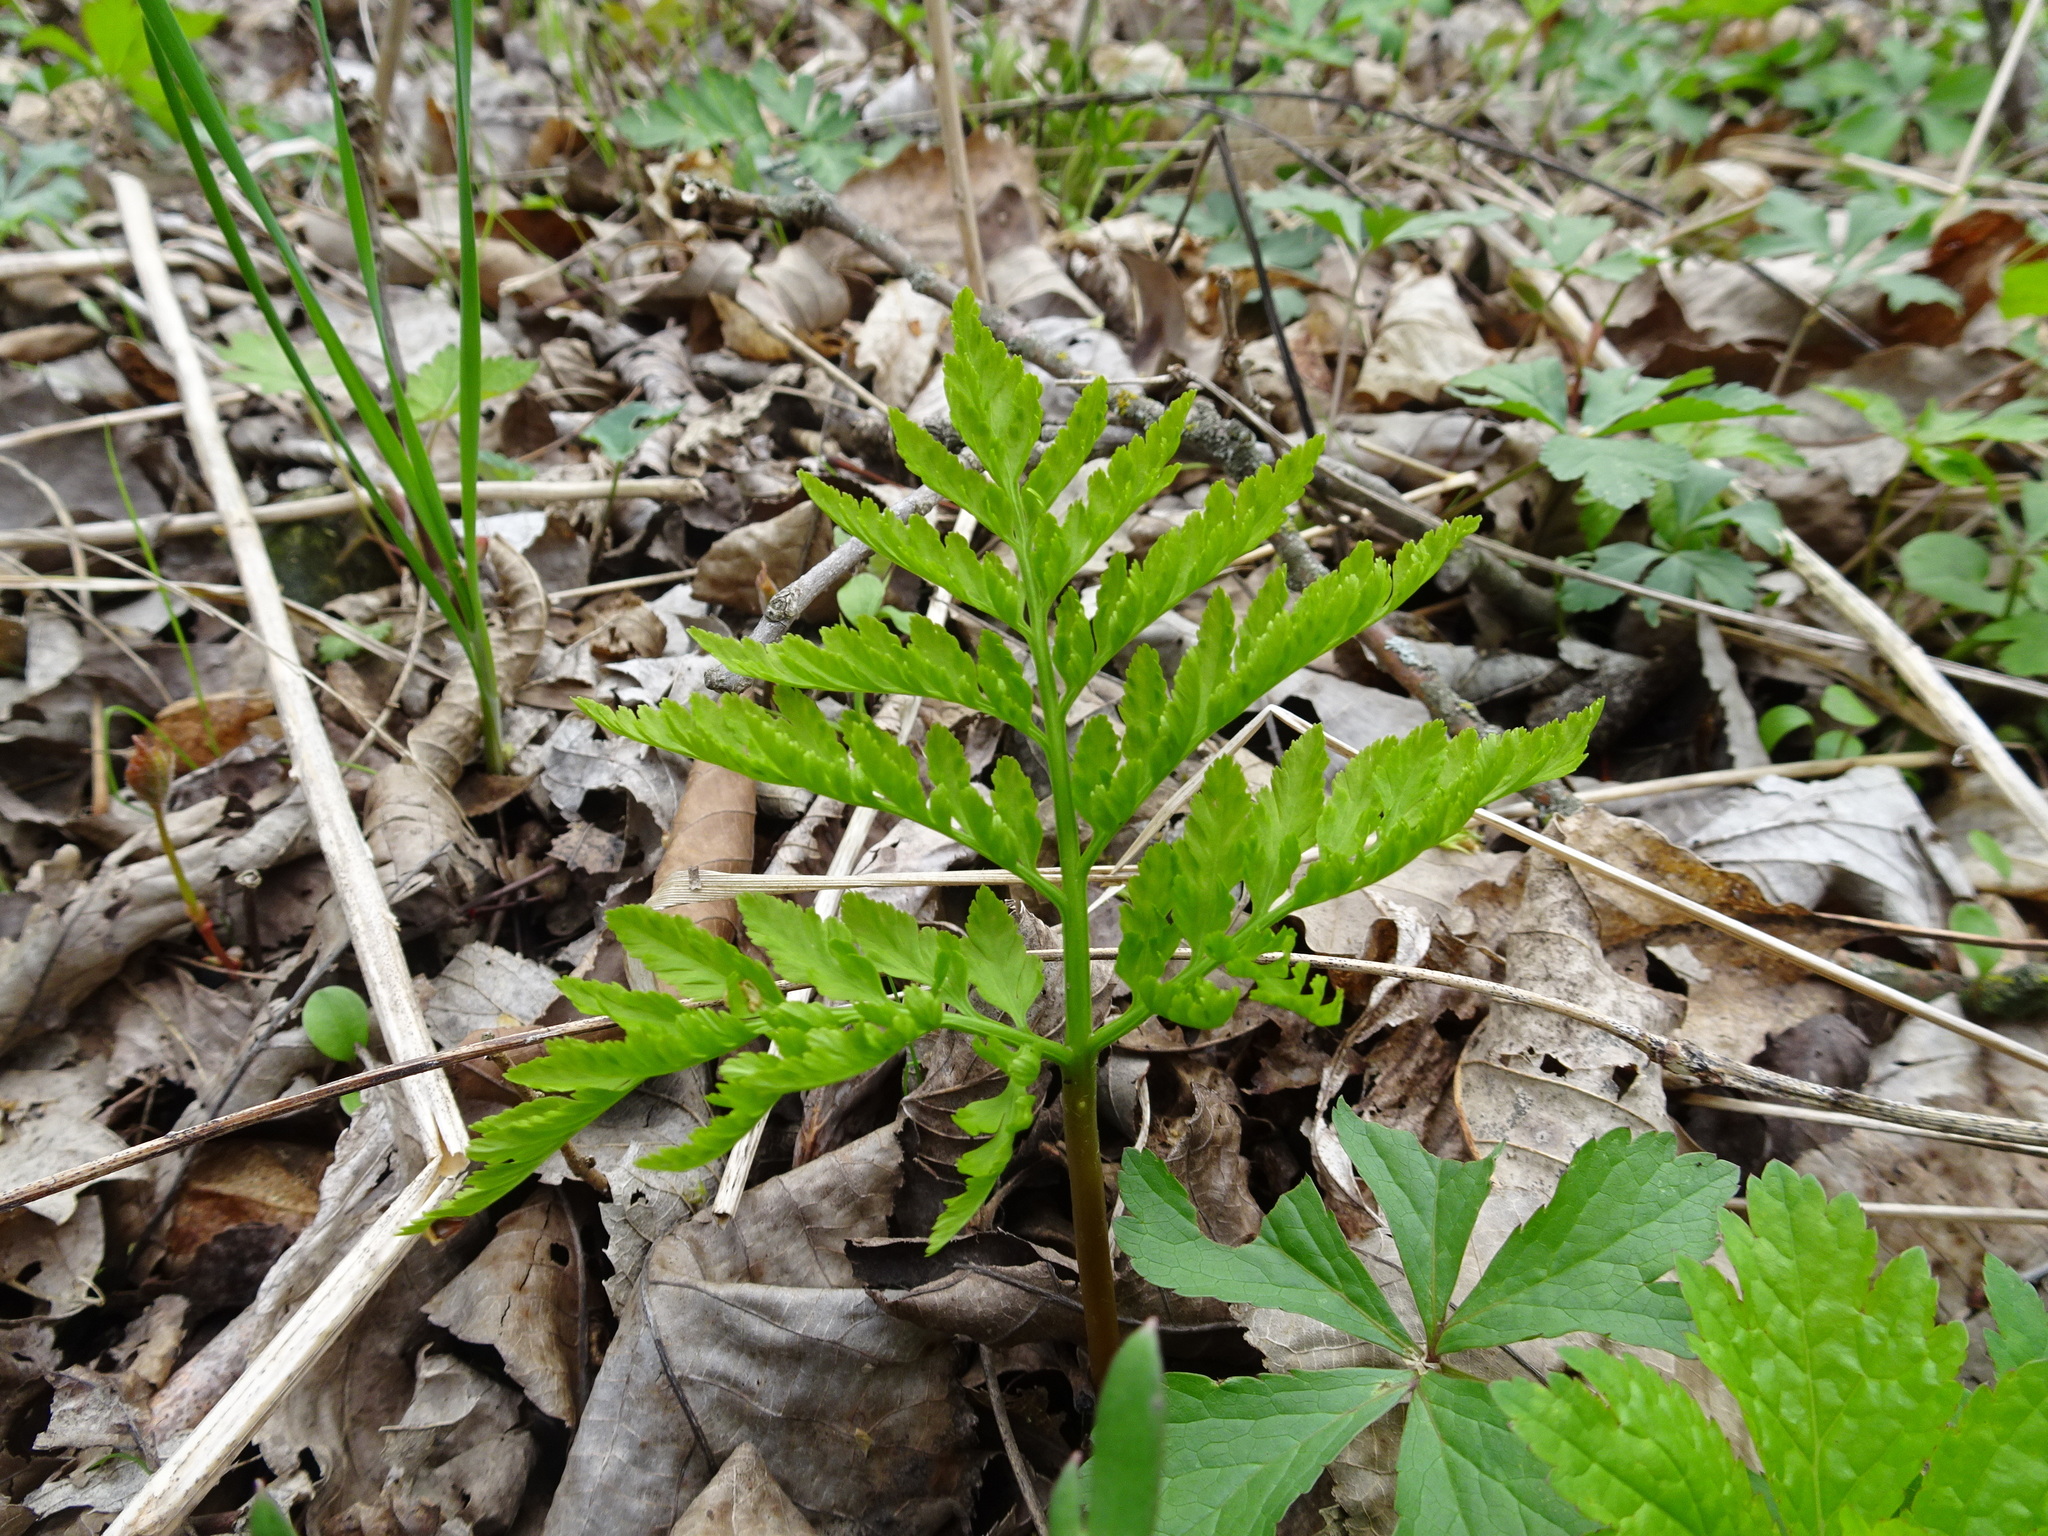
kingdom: Plantae
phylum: Tracheophyta
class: Polypodiopsida
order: Ophioglossales
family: Ophioglossaceae
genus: Botrypus
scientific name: Botrypus virginianus
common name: Common grapefern
